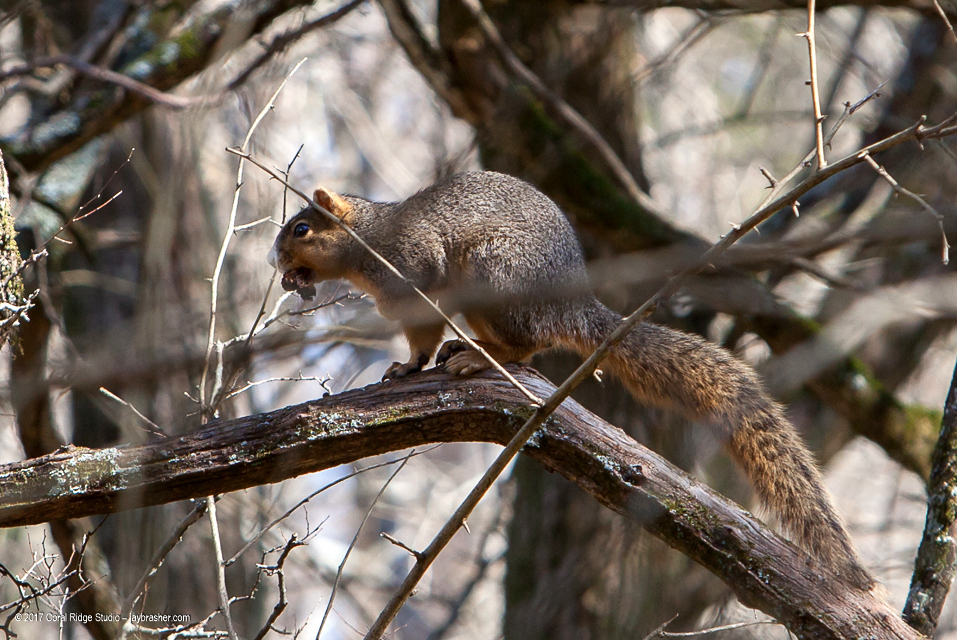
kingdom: Animalia
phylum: Chordata
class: Mammalia
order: Rodentia
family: Sciuridae
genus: Sciurus
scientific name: Sciurus niger
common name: Fox squirrel
